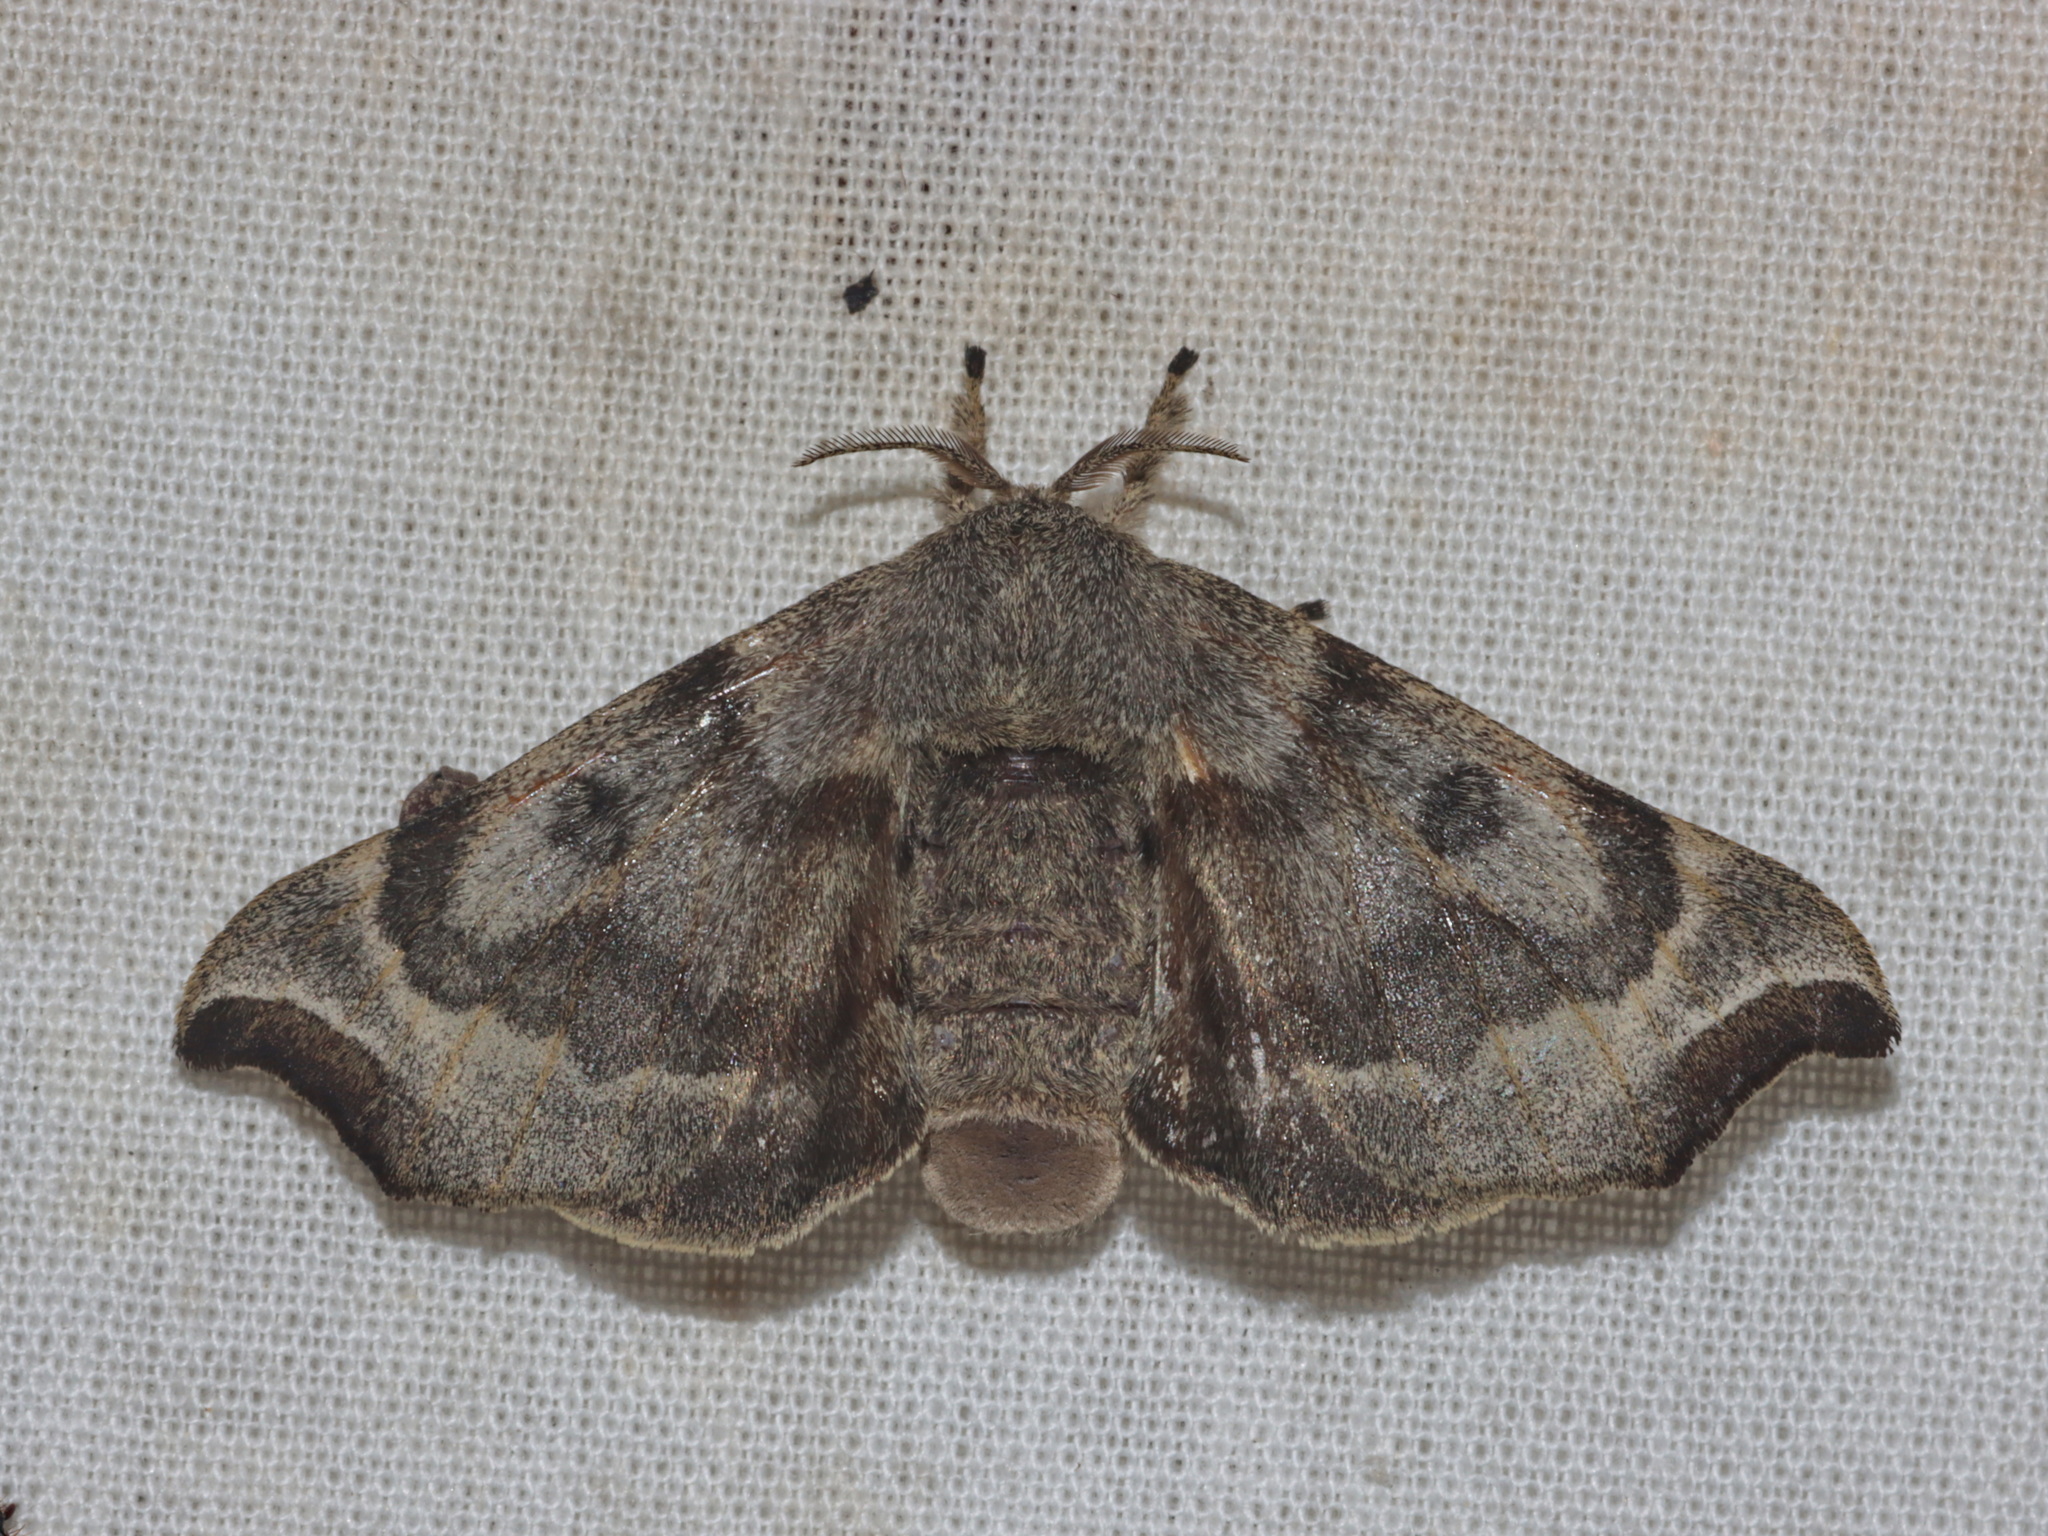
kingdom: Animalia
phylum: Arthropoda
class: Insecta
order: Lepidoptera
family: Endromidae
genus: Theophoba
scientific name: Theophoba pendulans
